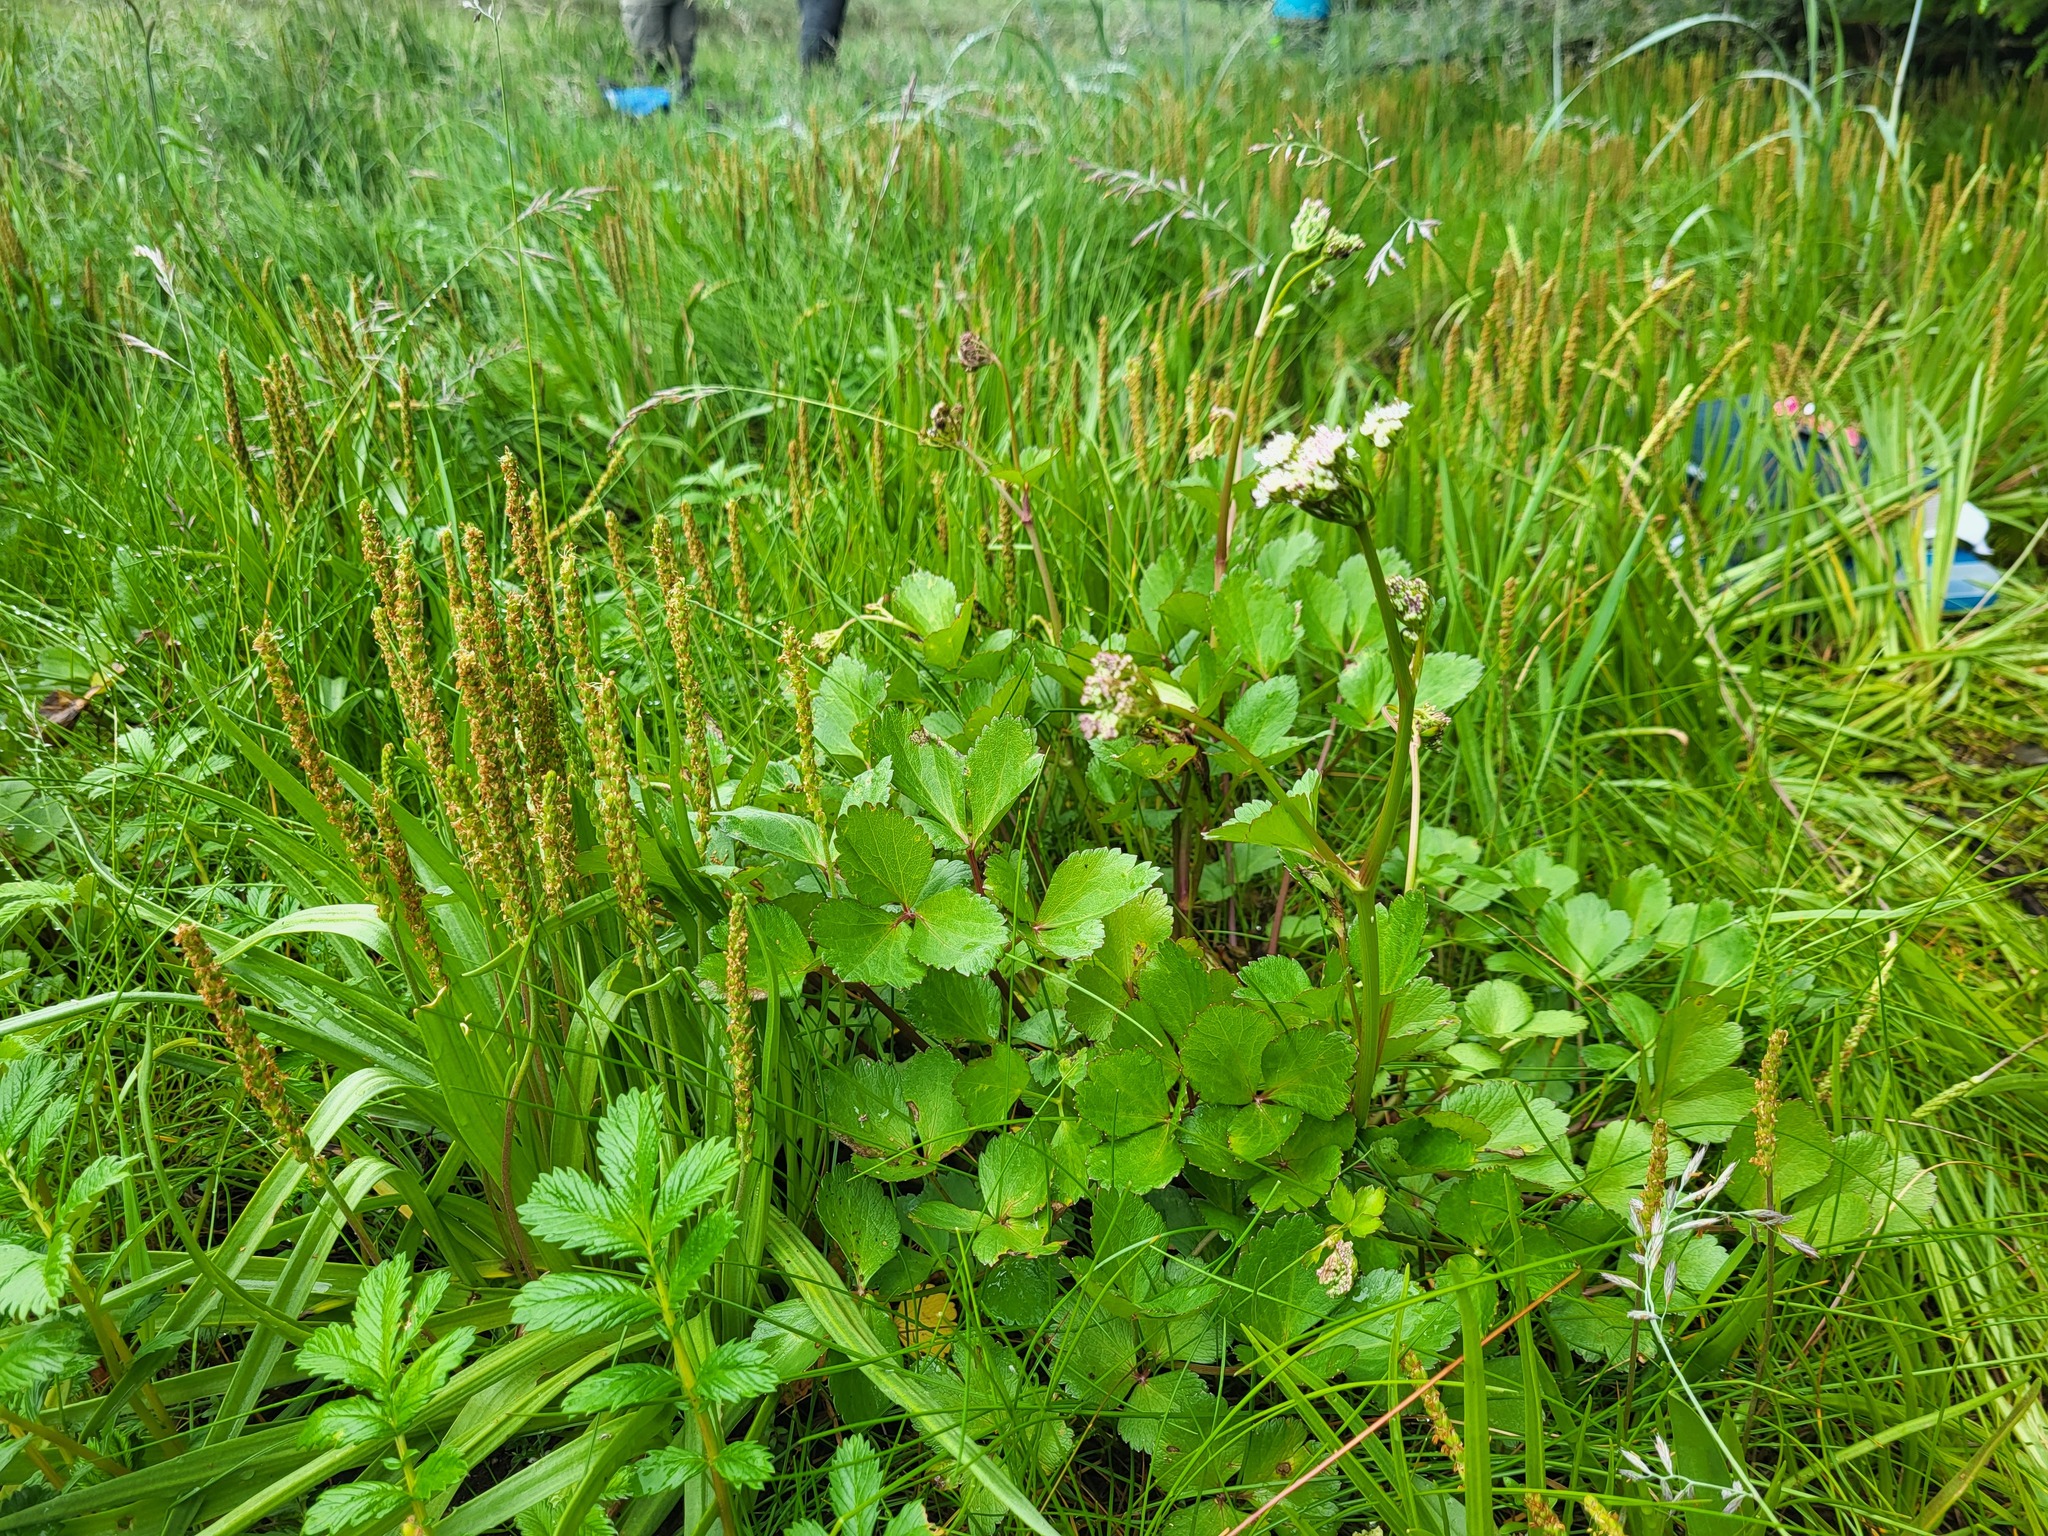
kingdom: Plantae
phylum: Tracheophyta
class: Magnoliopsida
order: Apiales
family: Apiaceae
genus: Ligusticum
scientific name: Ligusticum scothicum
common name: Beach lovage
